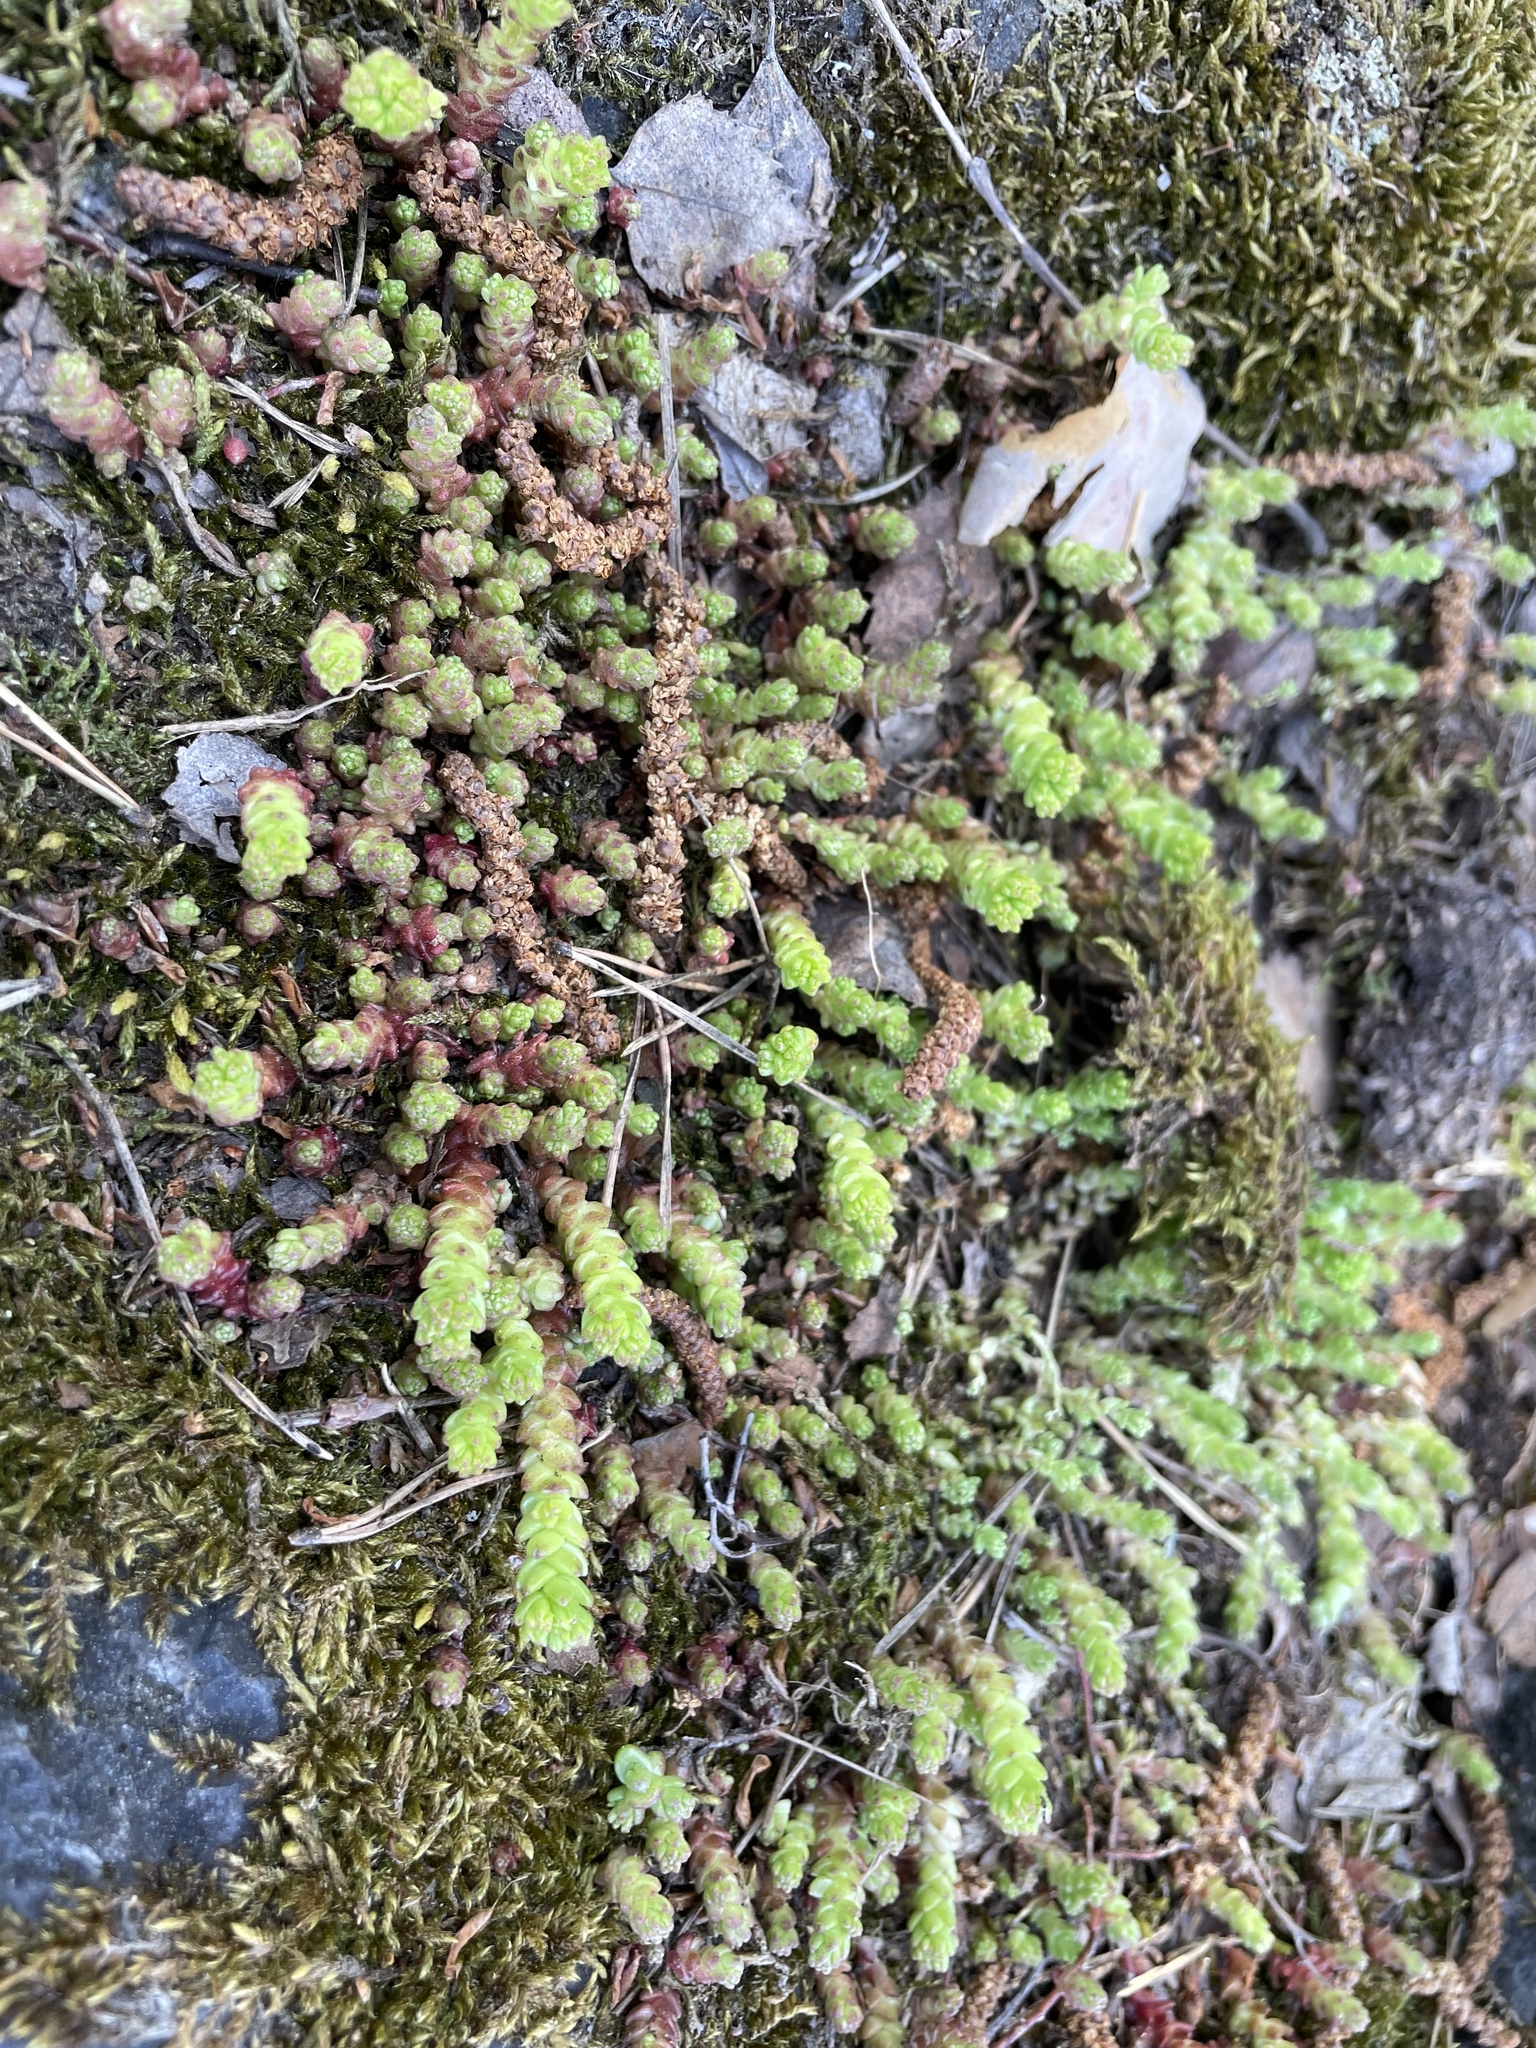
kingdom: Plantae
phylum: Tracheophyta
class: Magnoliopsida
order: Saxifragales
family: Crassulaceae
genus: Sedum
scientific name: Sedum acre
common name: Biting stonecrop
